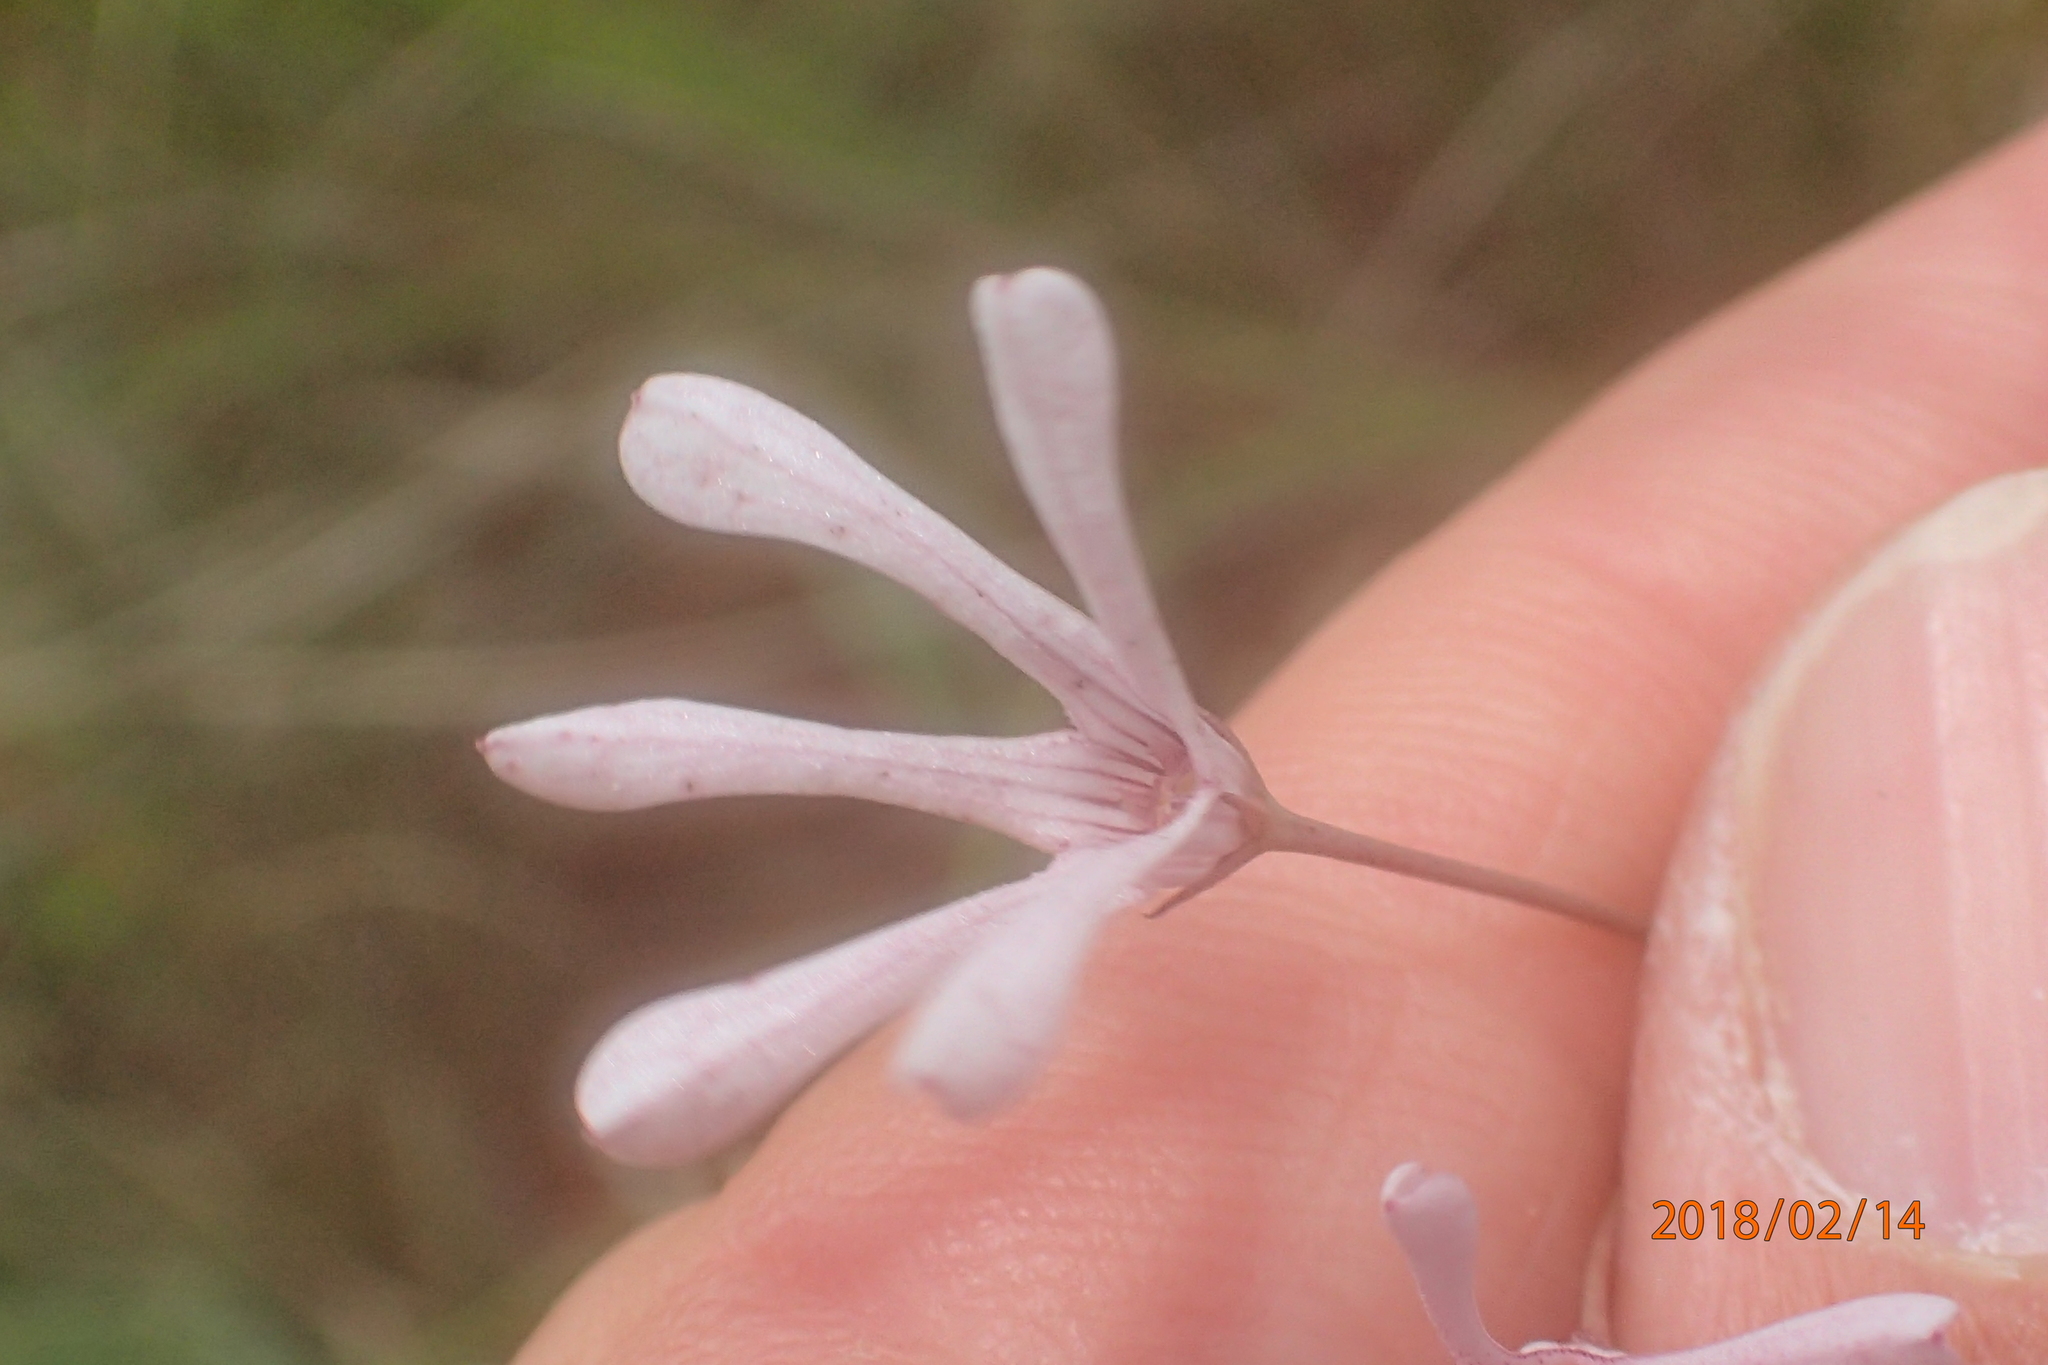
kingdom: Plantae
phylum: Tracheophyta
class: Magnoliopsida
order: Gentianales
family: Apocynaceae
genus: Ceropegia
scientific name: Ceropegia rubella
